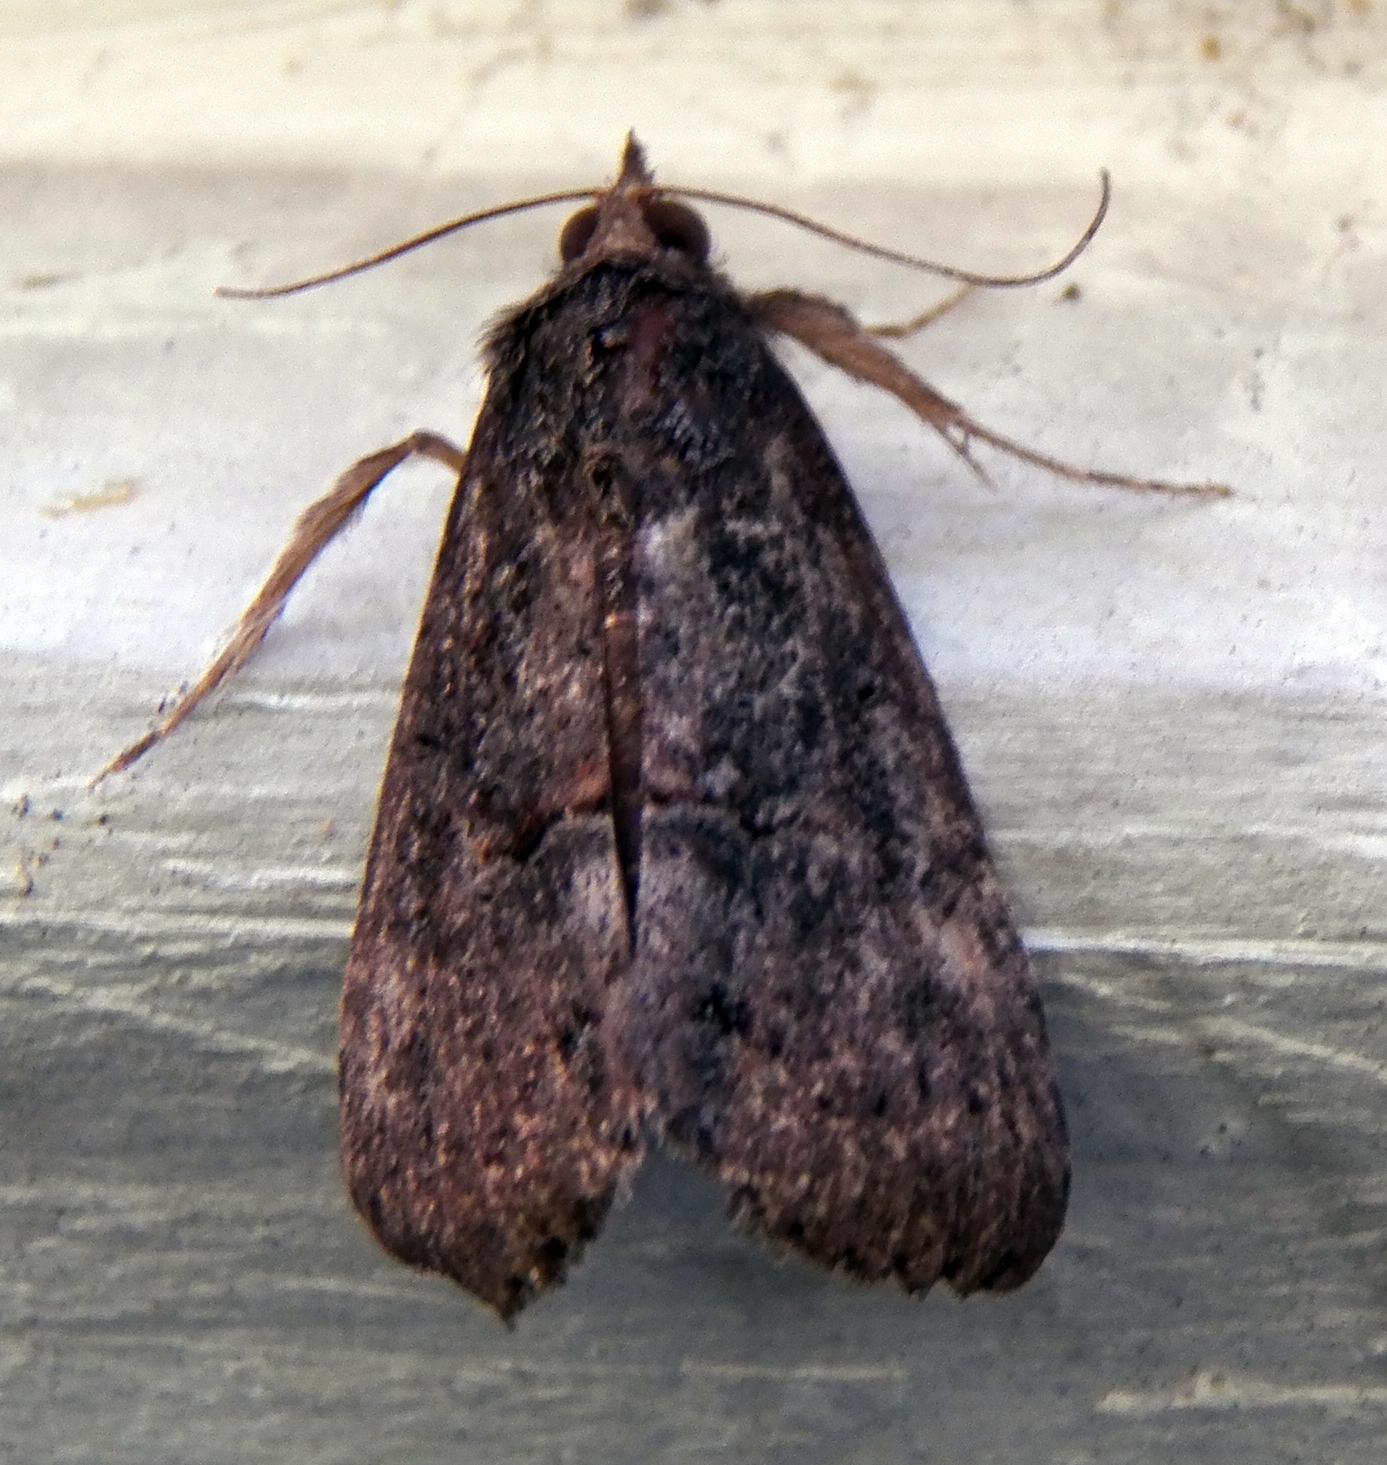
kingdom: Animalia
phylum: Arthropoda
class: Insecta
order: Lepidoptera
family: Erebidae
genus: Hypena
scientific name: Hypena scabra
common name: Green cloverworm
